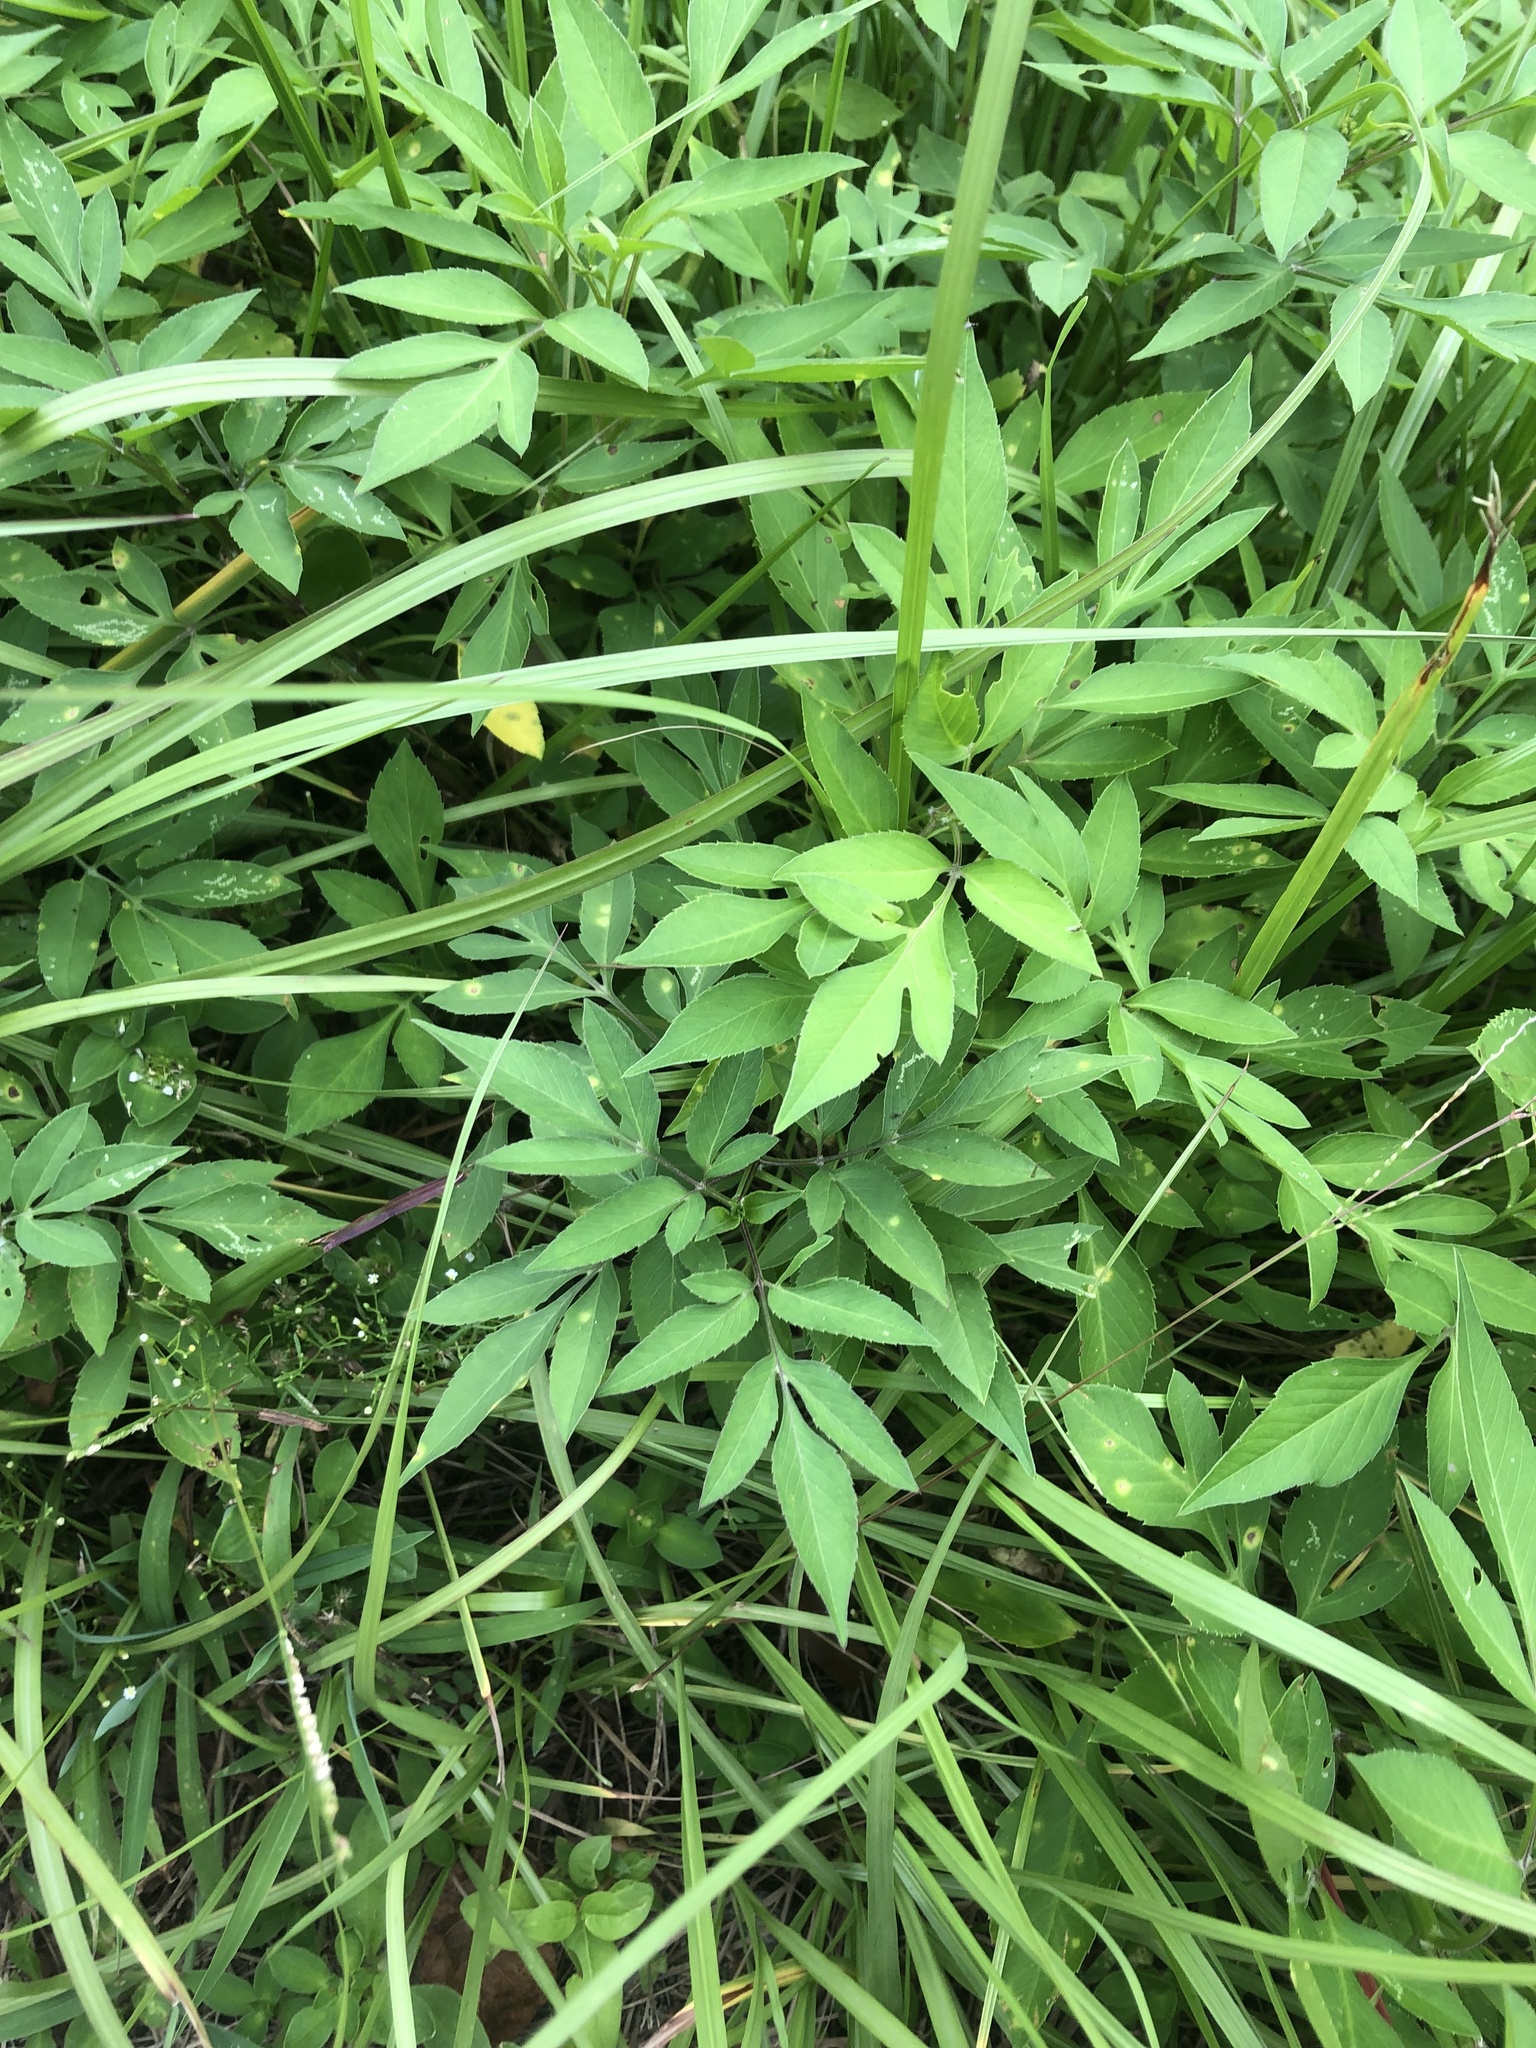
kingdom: Plantae
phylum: Tracheophyta
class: Magnoliopsida
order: Asterales
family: Asteraceae
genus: Bidens
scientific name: Bidens alba
